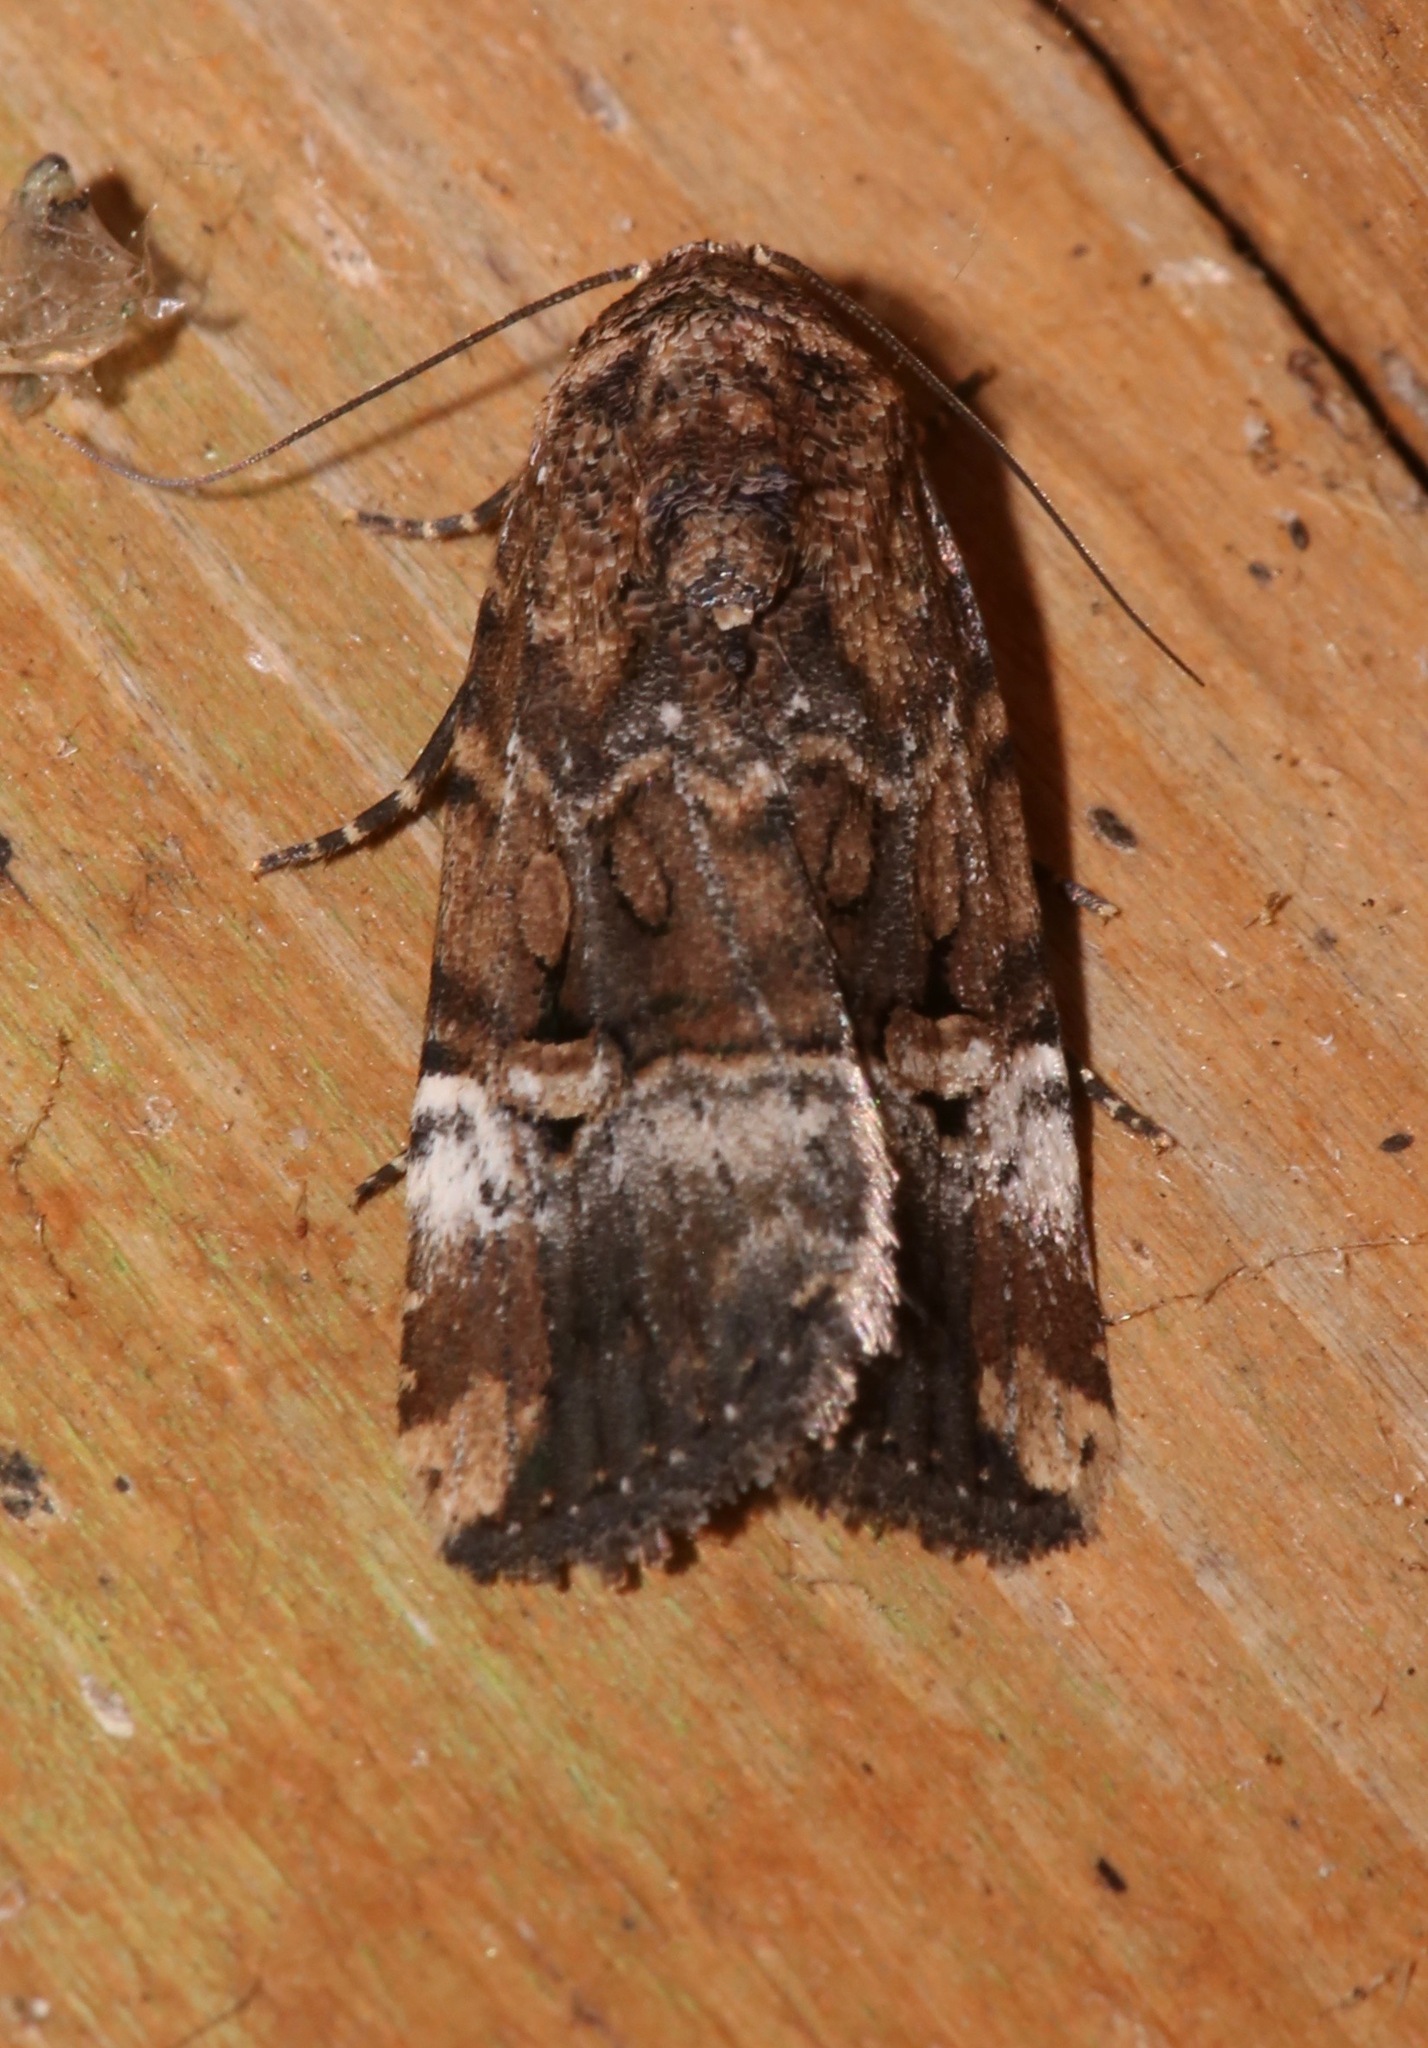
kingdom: Animalia
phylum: Arthropoda
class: Insecta
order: Lepidoptera
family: Noctuidae
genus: Elaphria
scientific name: Elaphria chalcedonia
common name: Chalcedony midget
